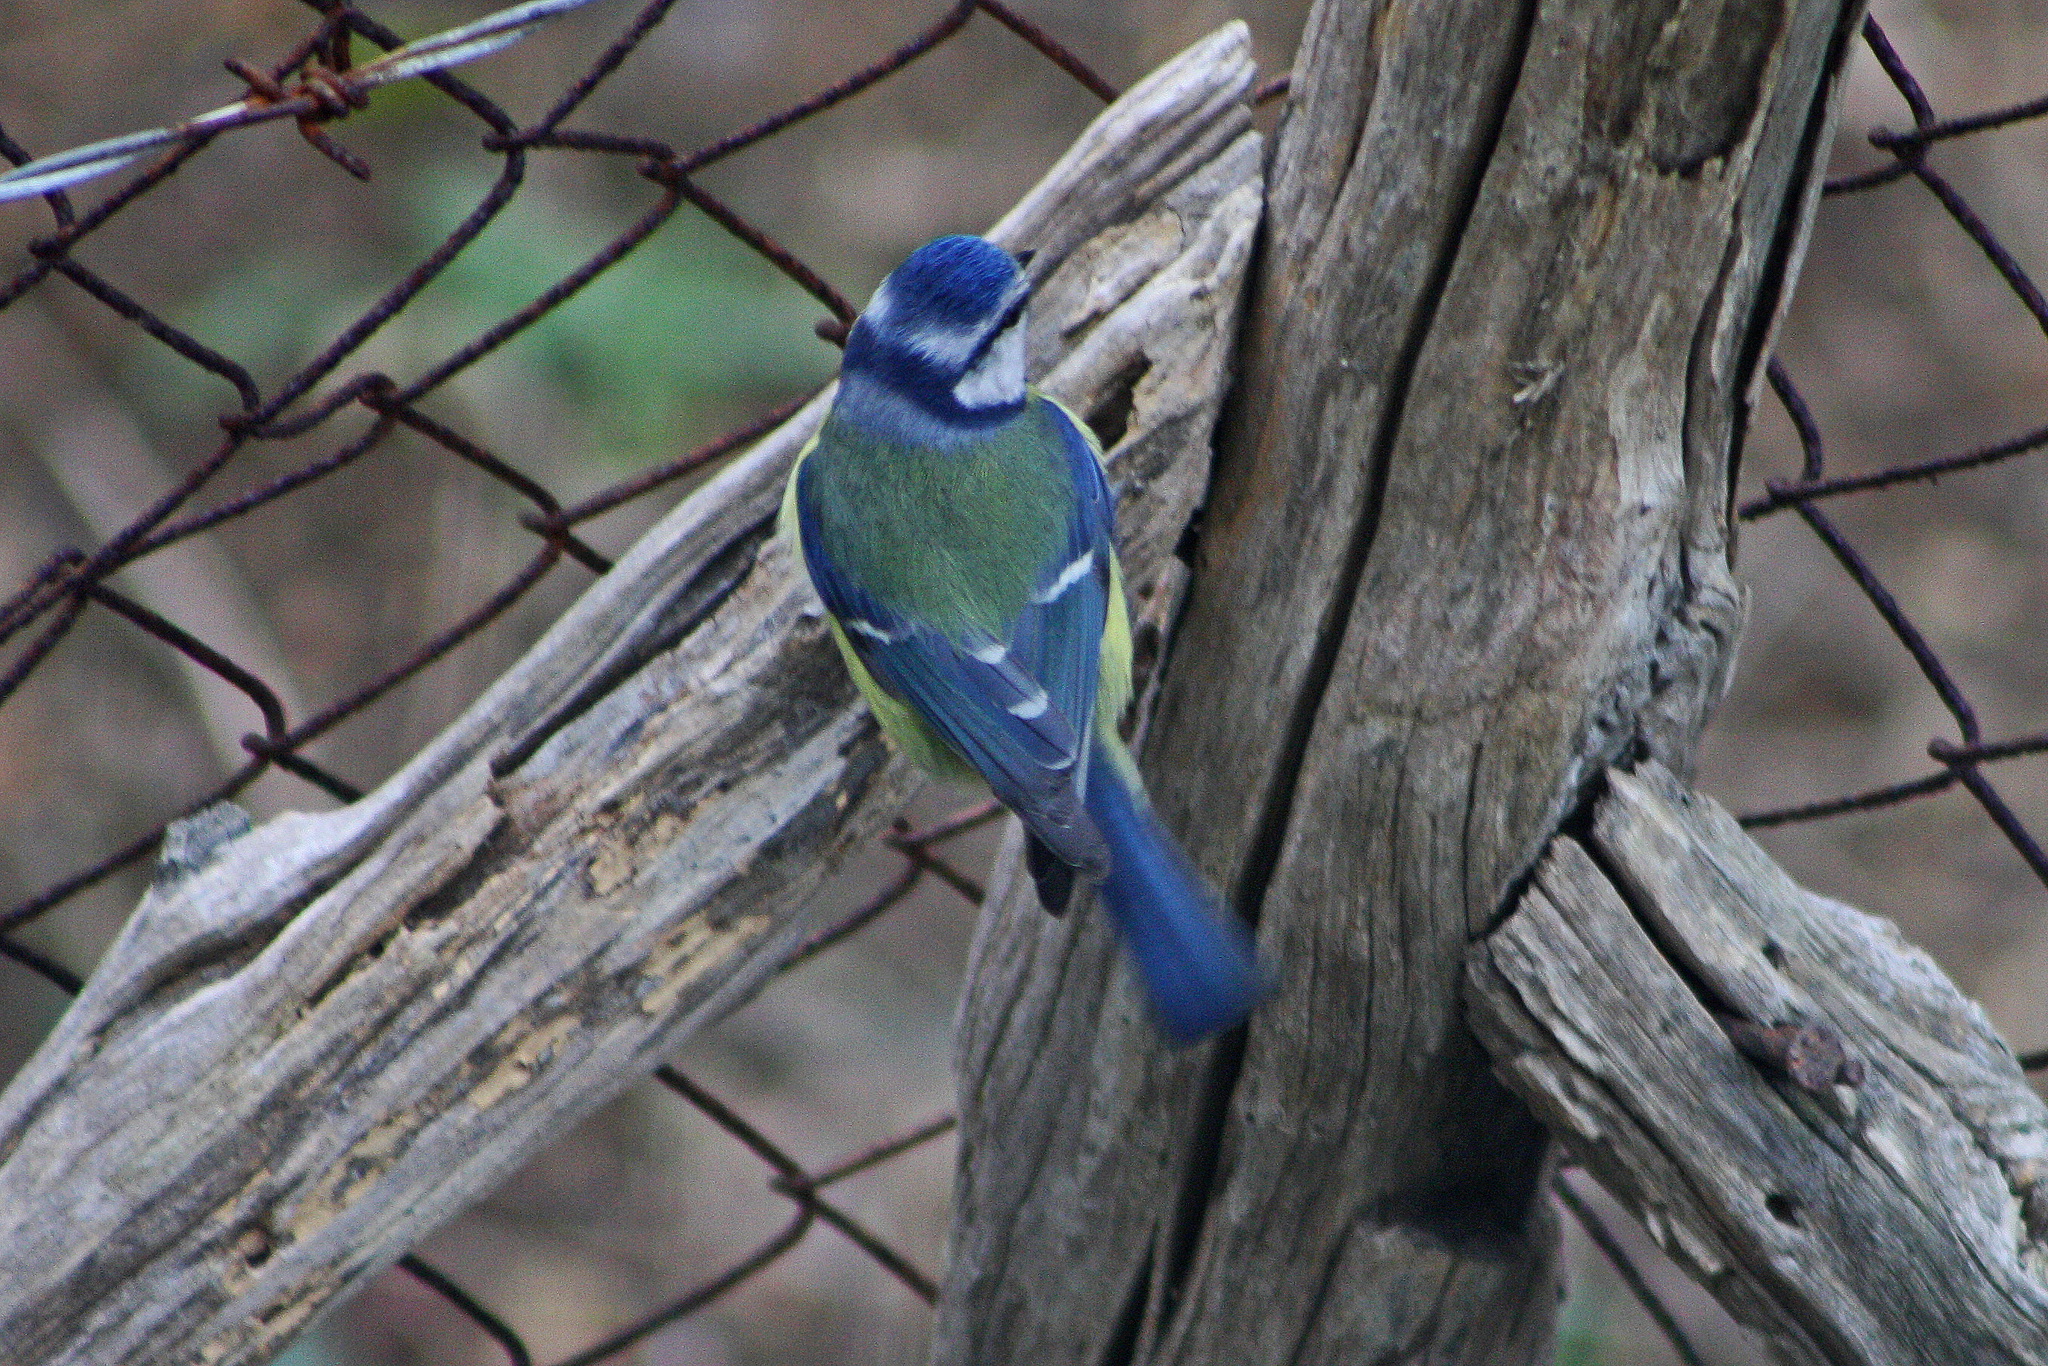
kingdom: Animalia
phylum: Chordata
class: Aves
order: Passeriformes
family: Paridae
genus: Cyanistes
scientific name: Cyanistes caeruleus
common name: Eurasian blue tit
